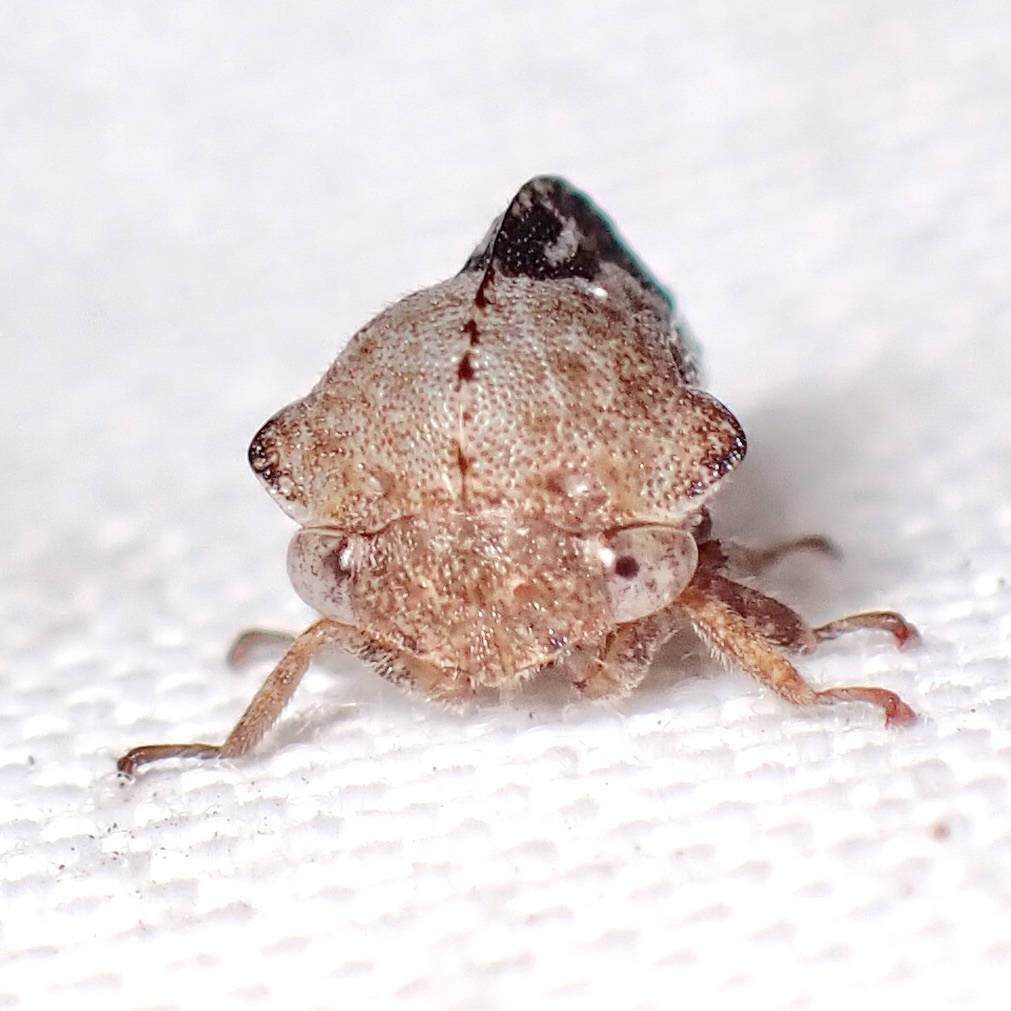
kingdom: Animalia
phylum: Arthropoda
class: Insecta
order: Hemiptera
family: Membracidae
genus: Telamonanthe
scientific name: Telamonanthe rileyi
